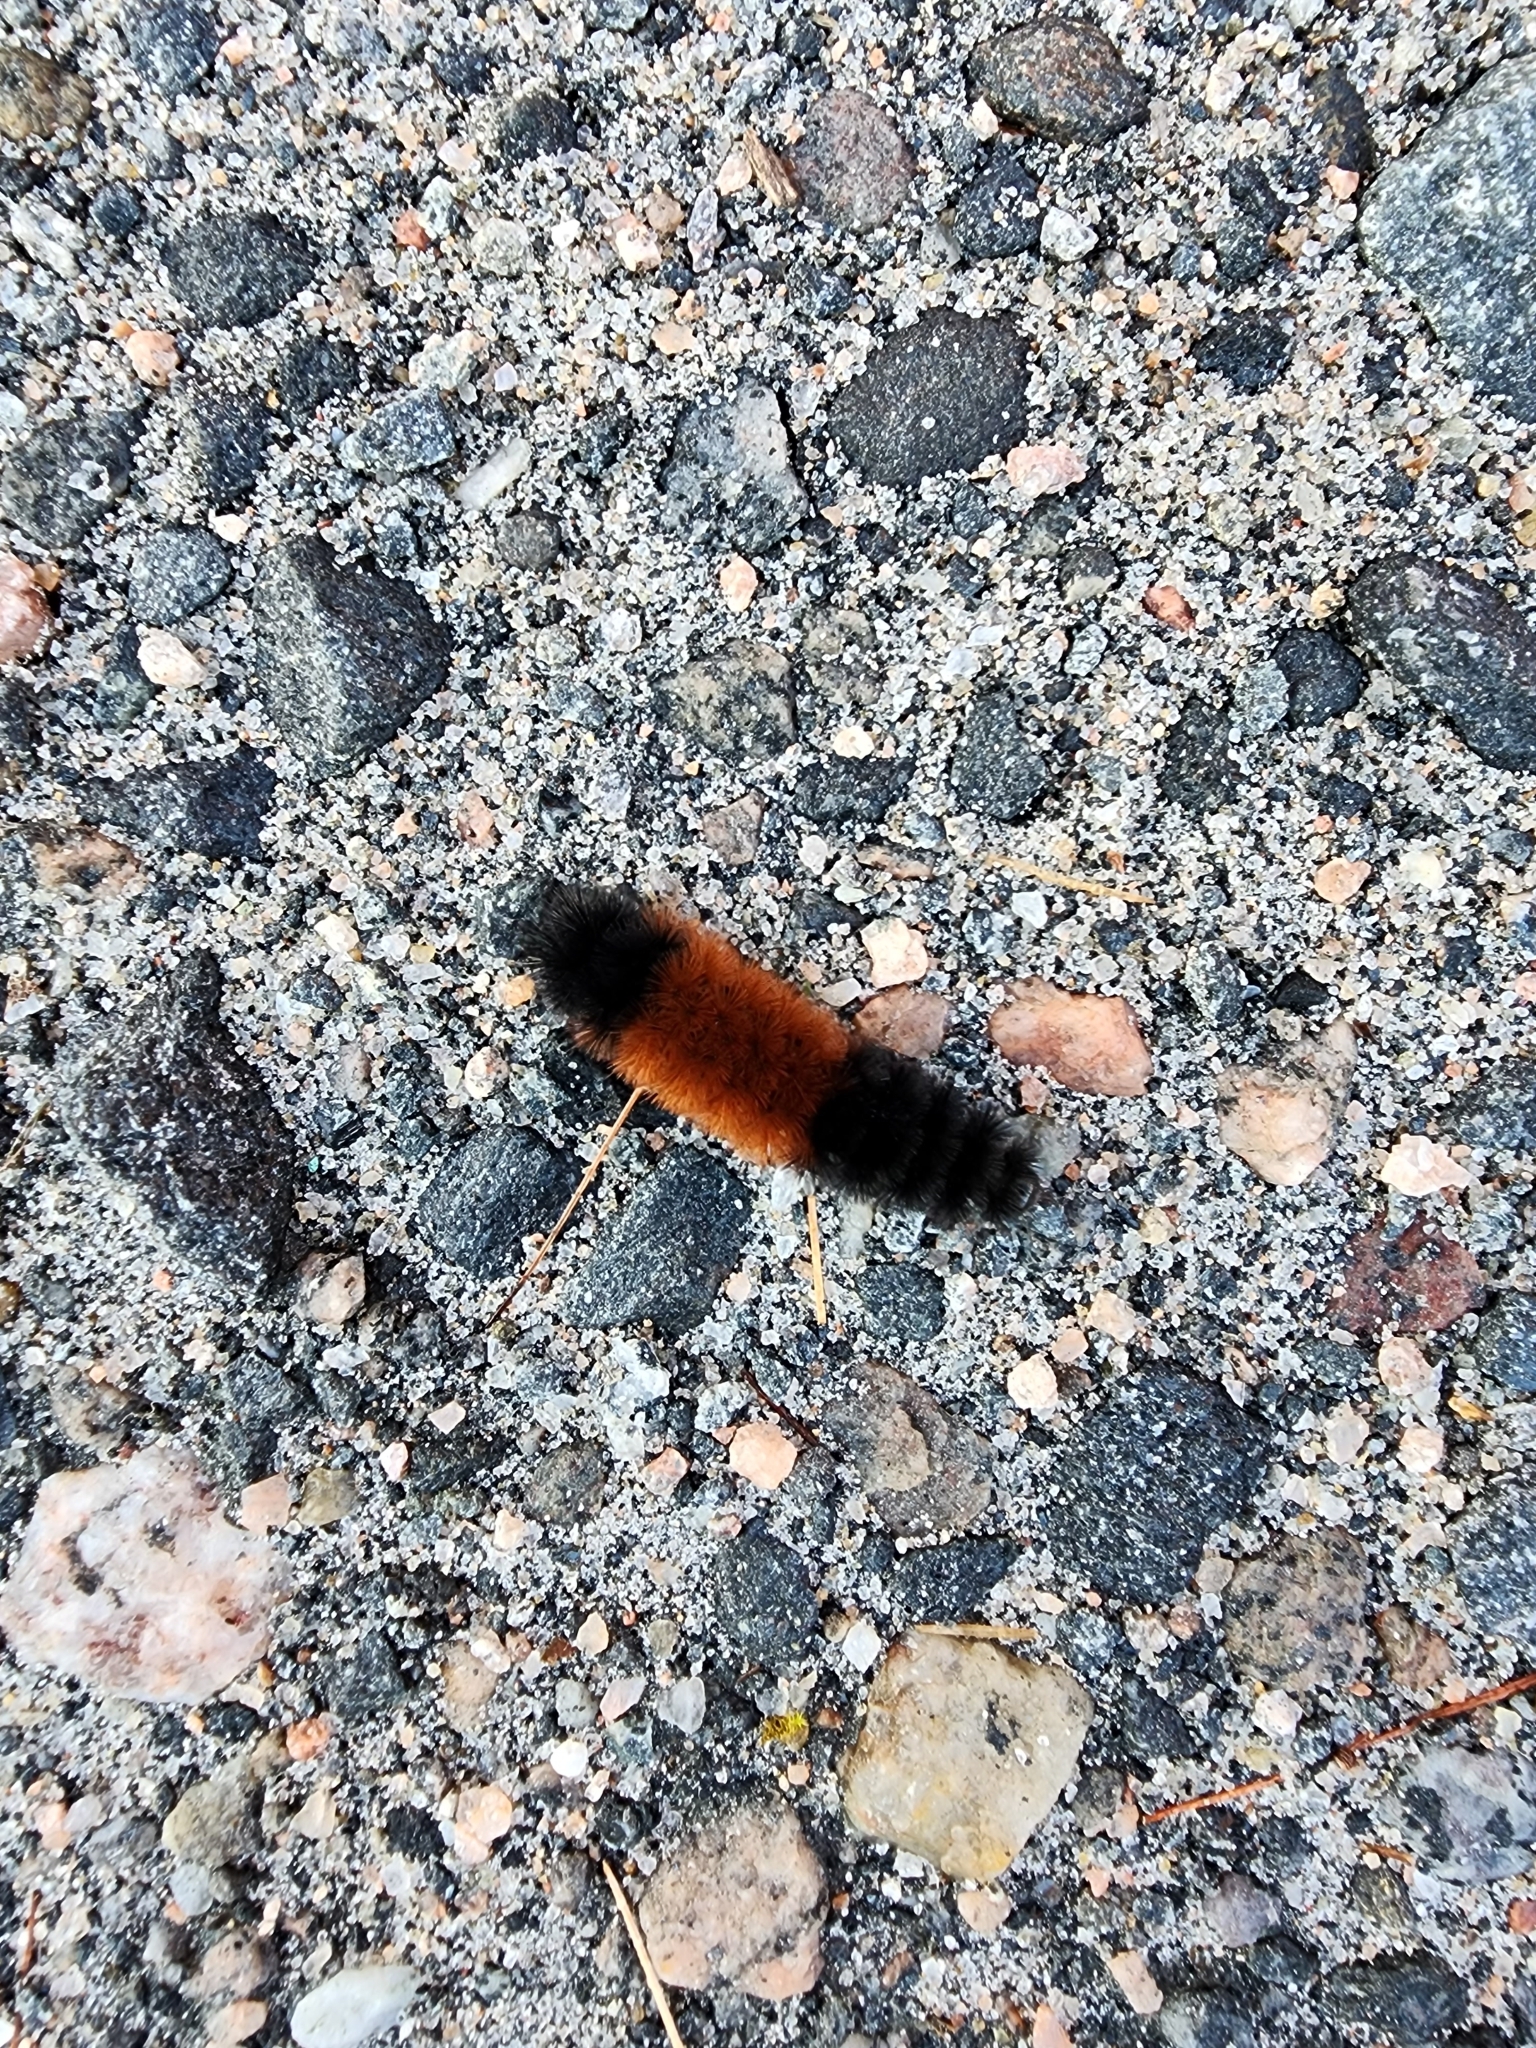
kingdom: Animalia
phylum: Arthropoda
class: Insecta
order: Lepidoptera
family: Erebidae
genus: Pyrrharctia
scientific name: Pyrrharctia isabella
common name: Isabella tiger moth
